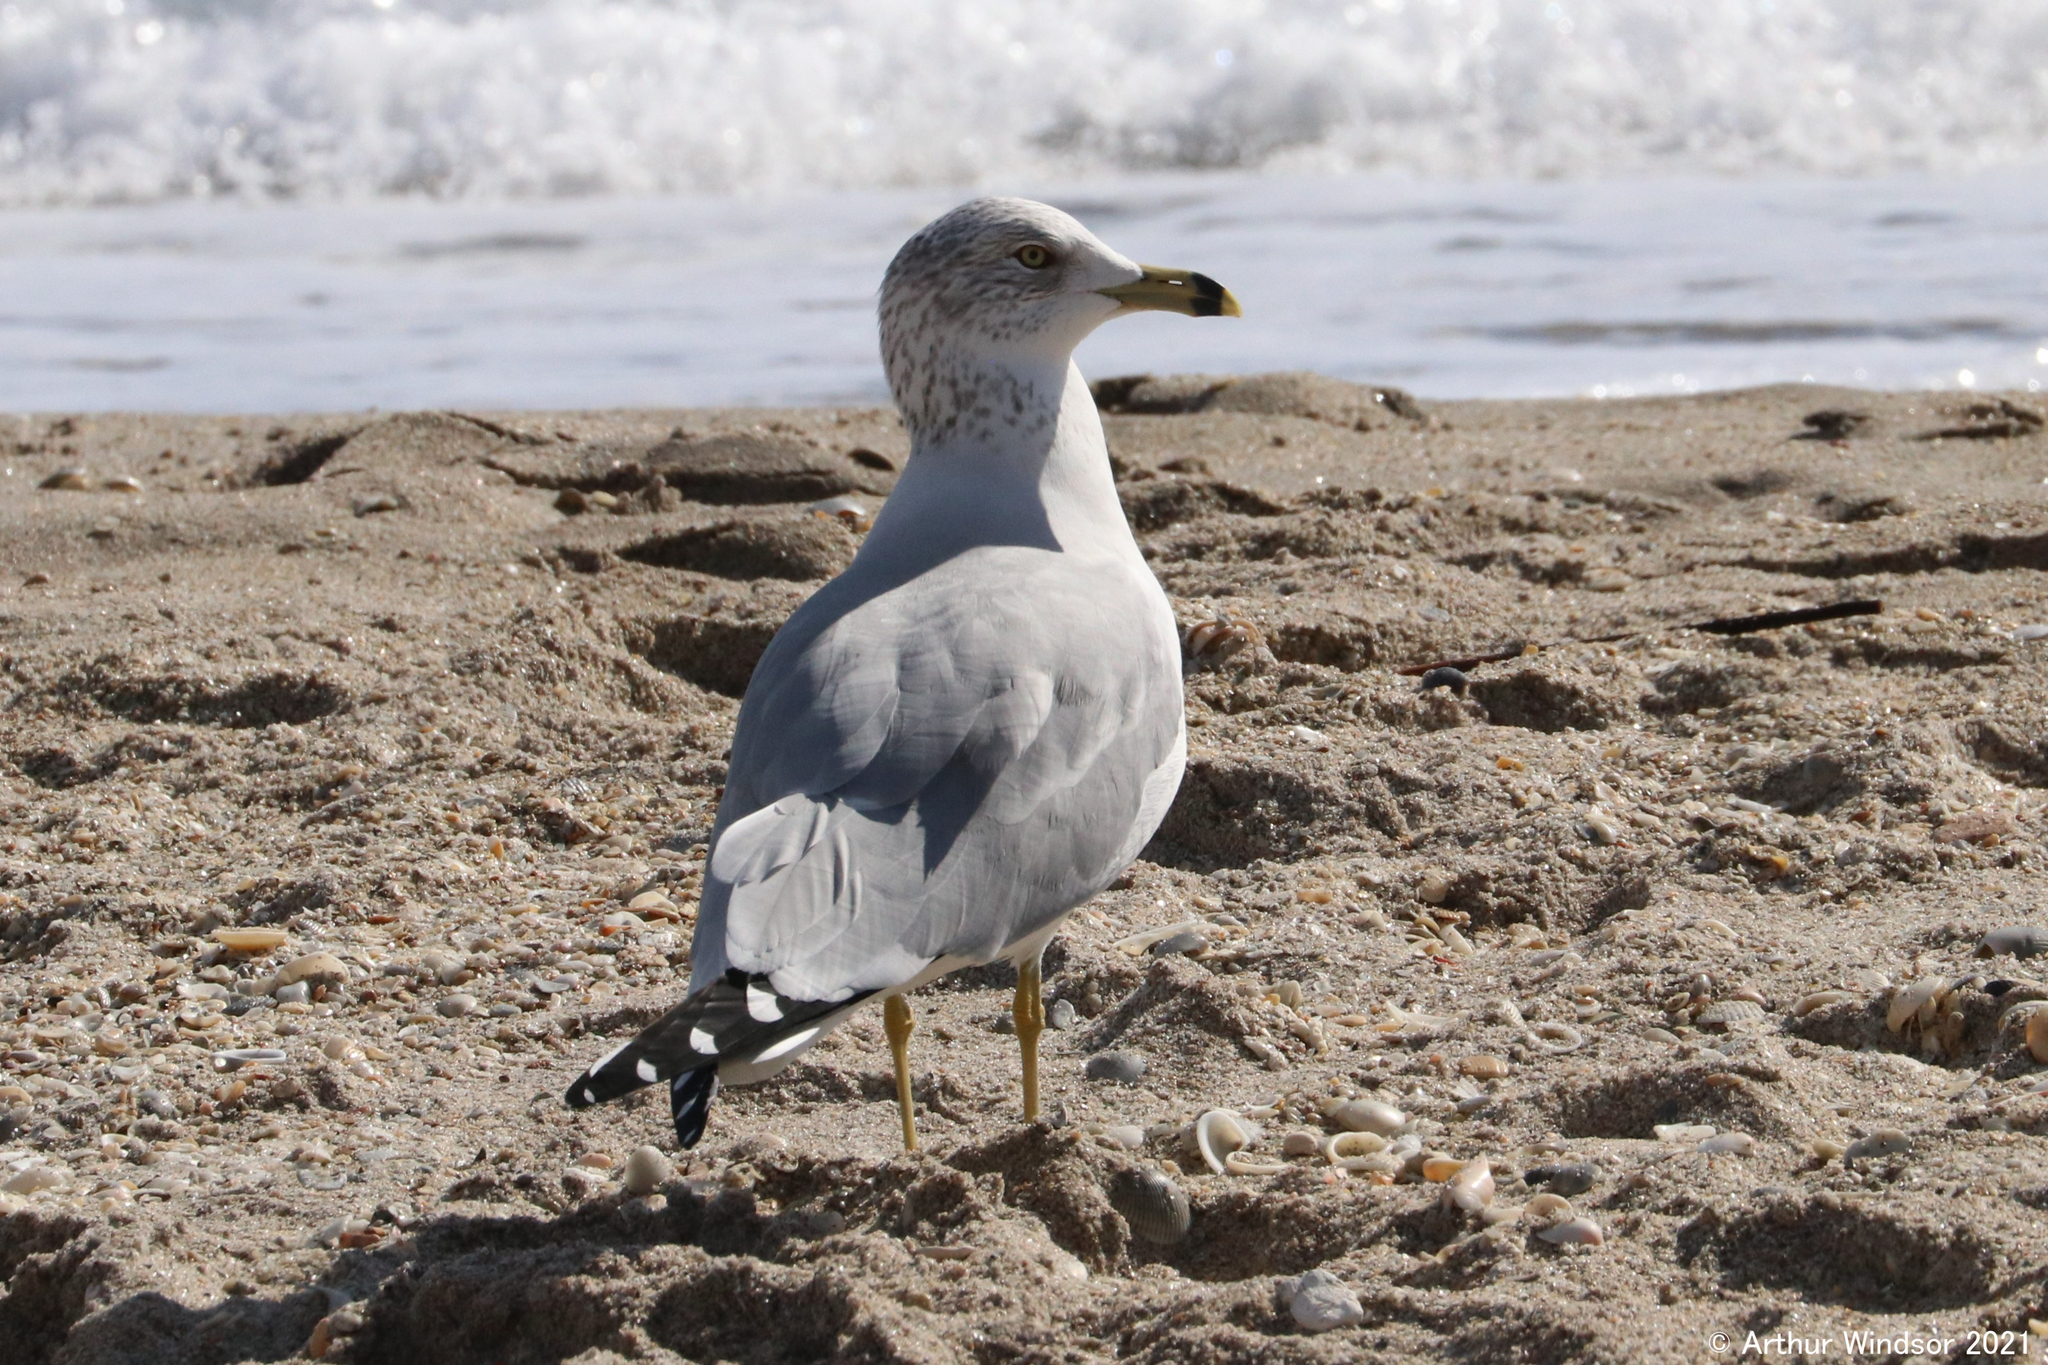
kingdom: Animalia
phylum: Chordata
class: Aves
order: Charadriiformes
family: Laridae
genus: Larus
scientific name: Larus delawarensis
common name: Ring-billed gull
